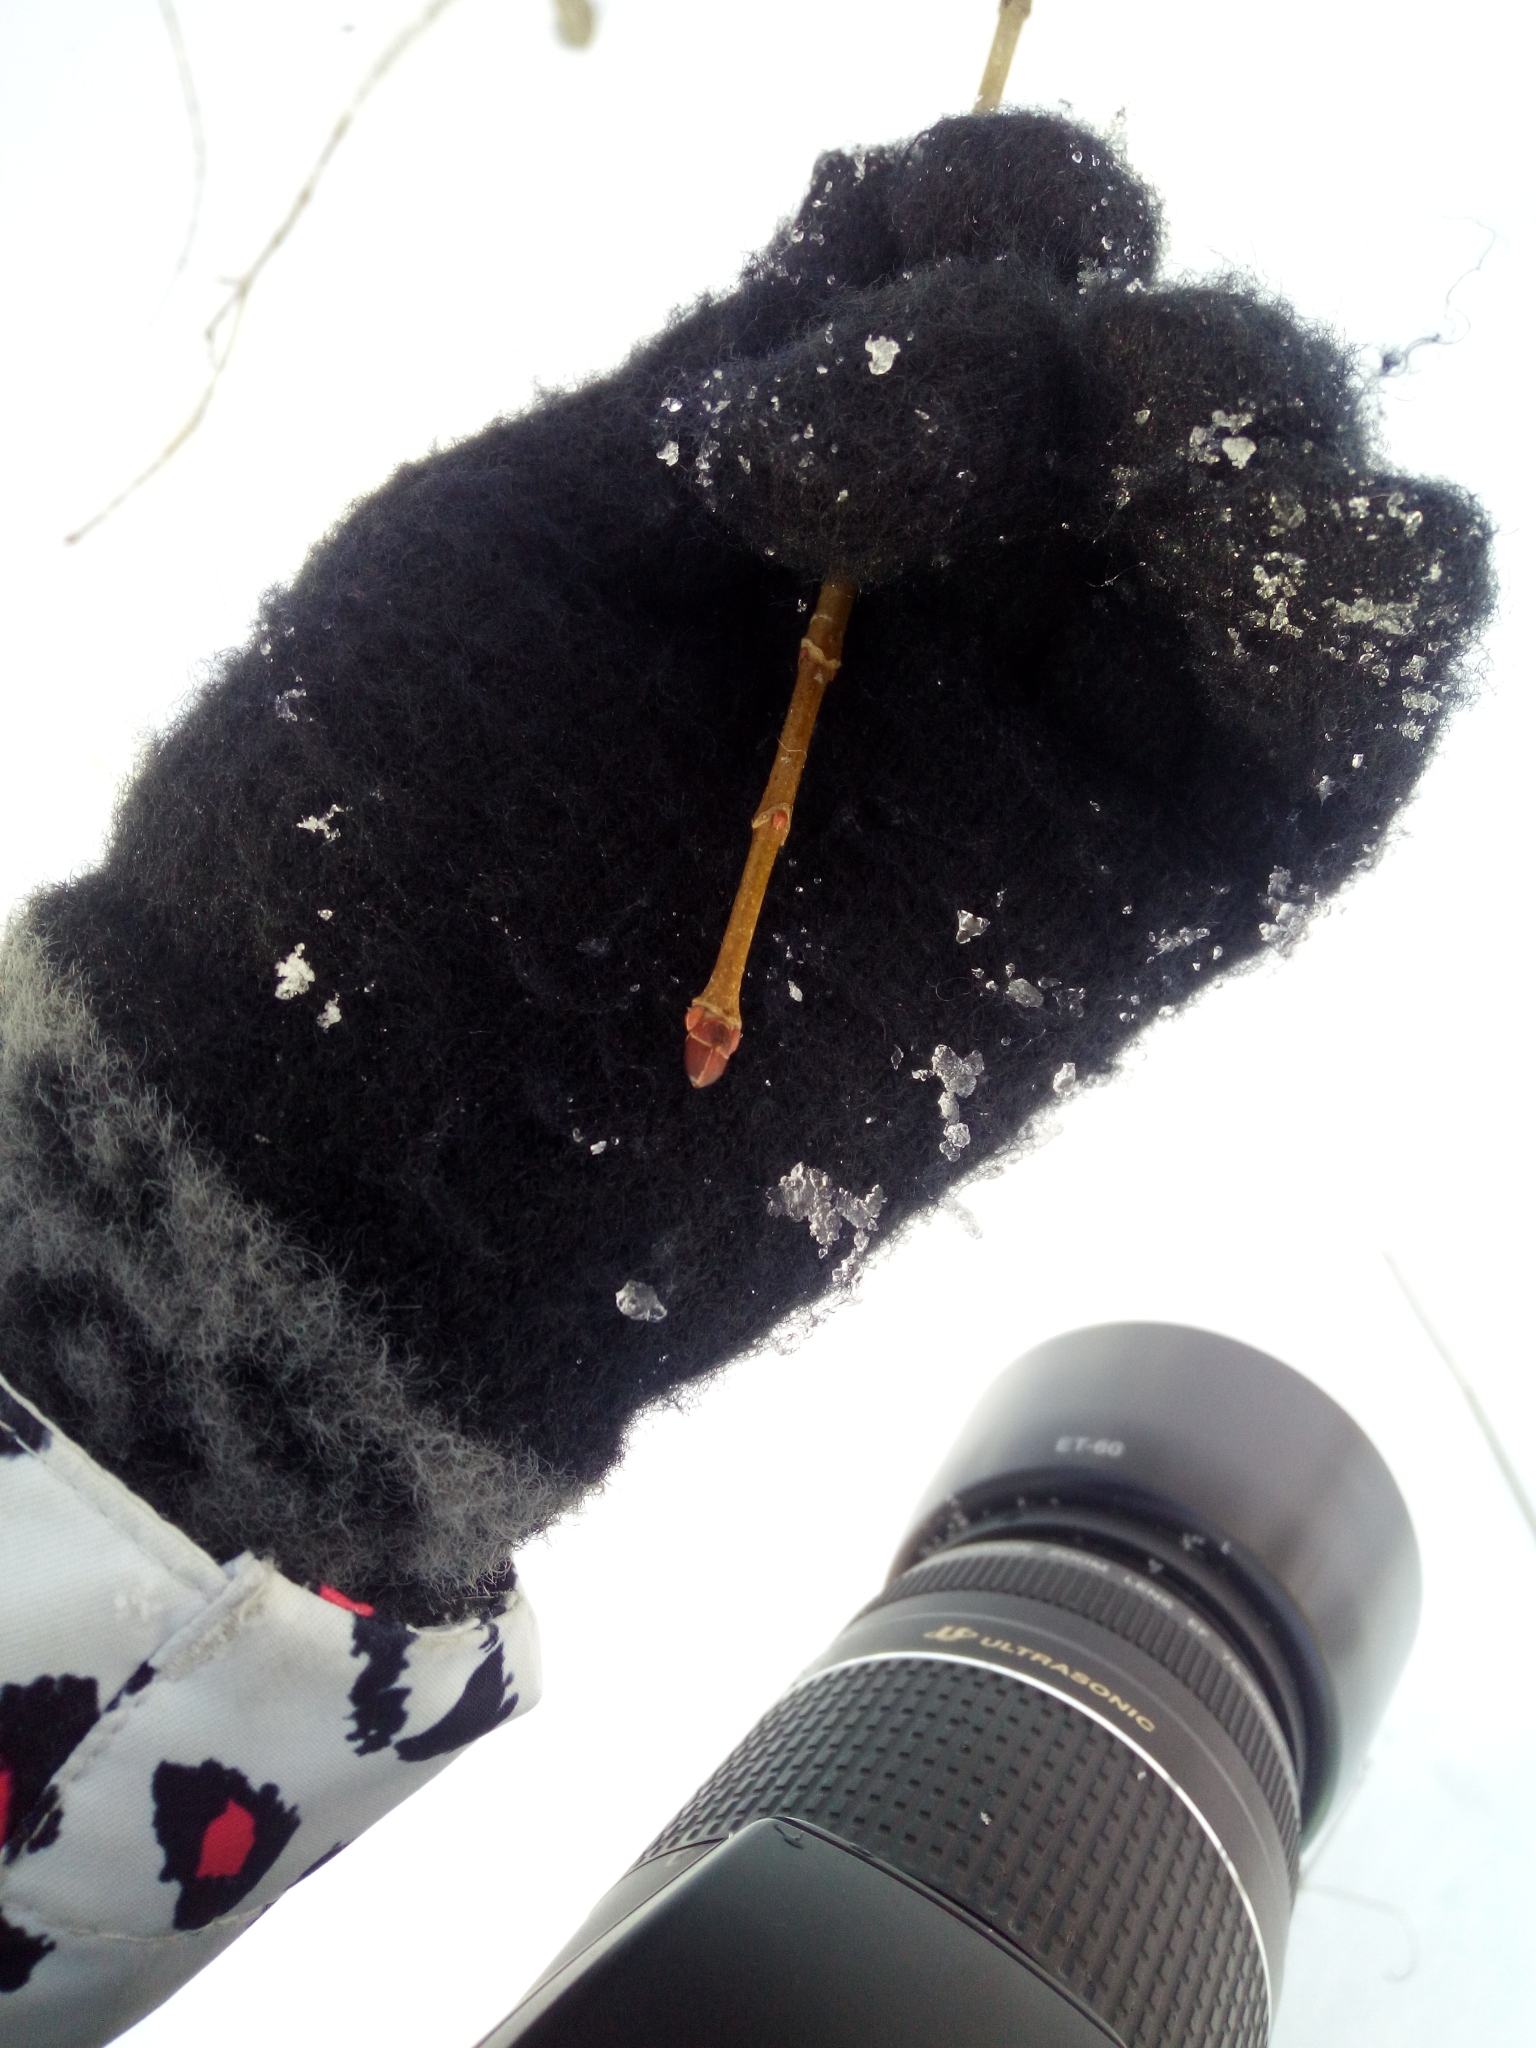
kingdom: Plantae
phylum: Tracheophyta
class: Magnoliopsida
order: Sapindales
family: Sapindaceae
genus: Acer
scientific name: Acer platanoides
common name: Norway maple
